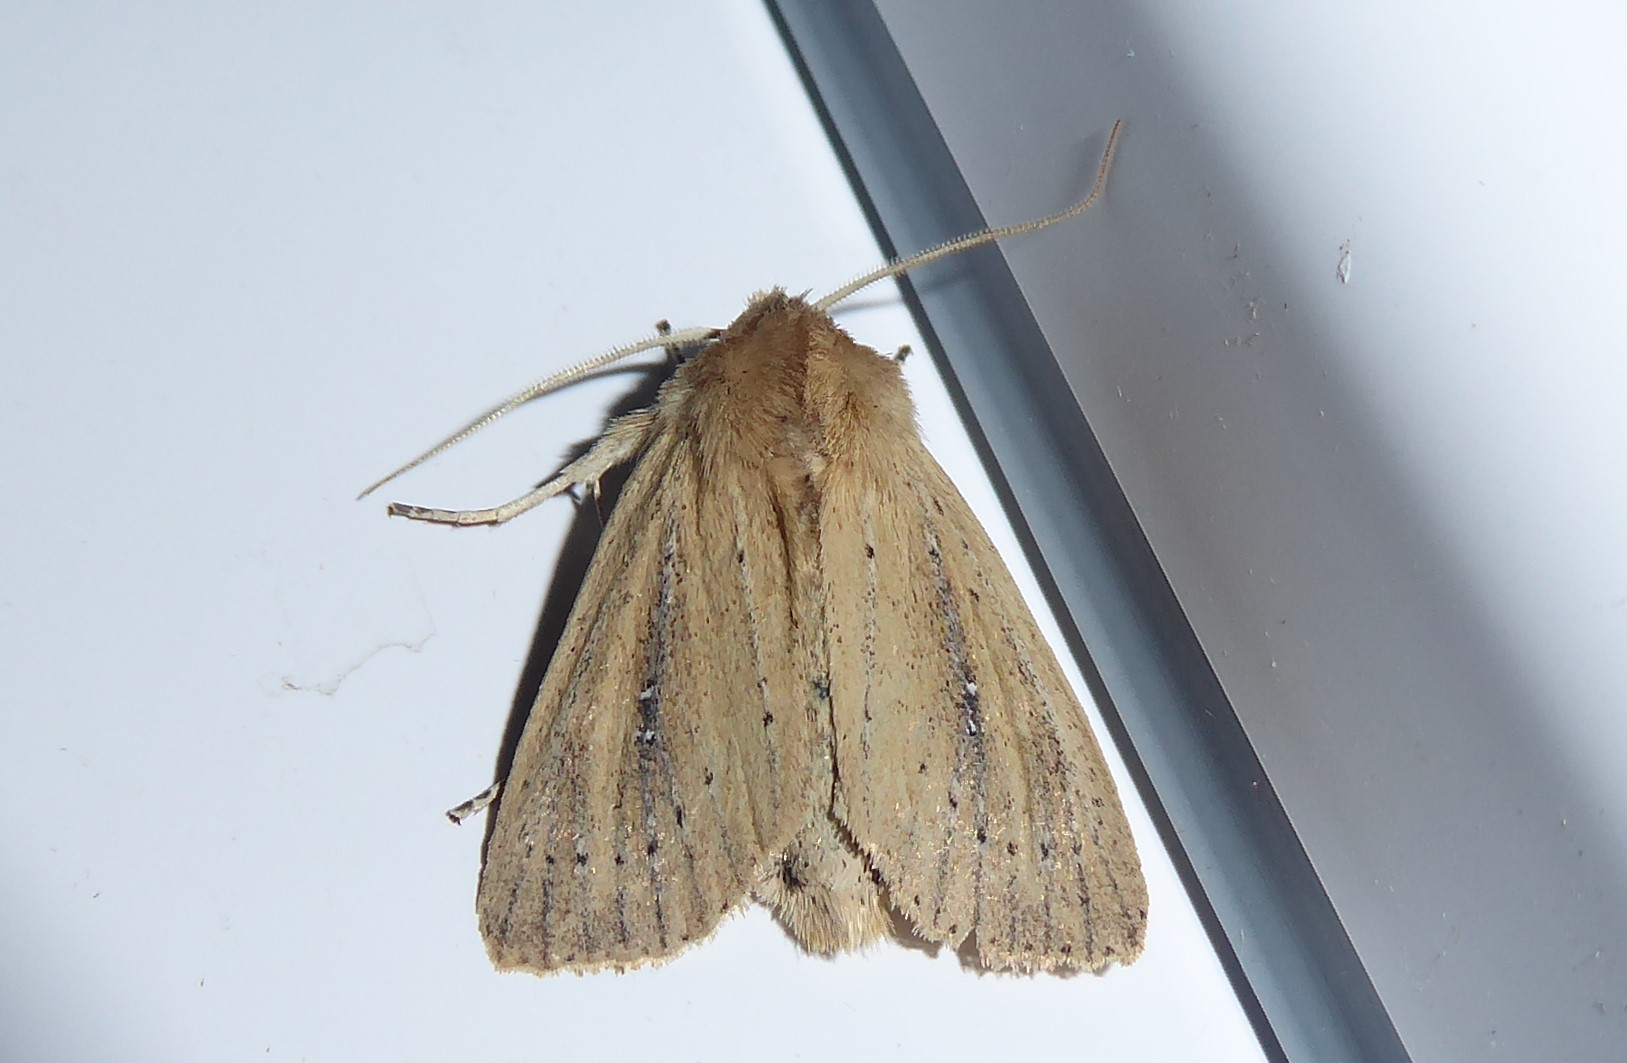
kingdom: Animalia
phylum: Arthropoda
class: Insecta
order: Lepidoptera
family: Noctuidae
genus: Ichneutica
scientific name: Ichneutica
